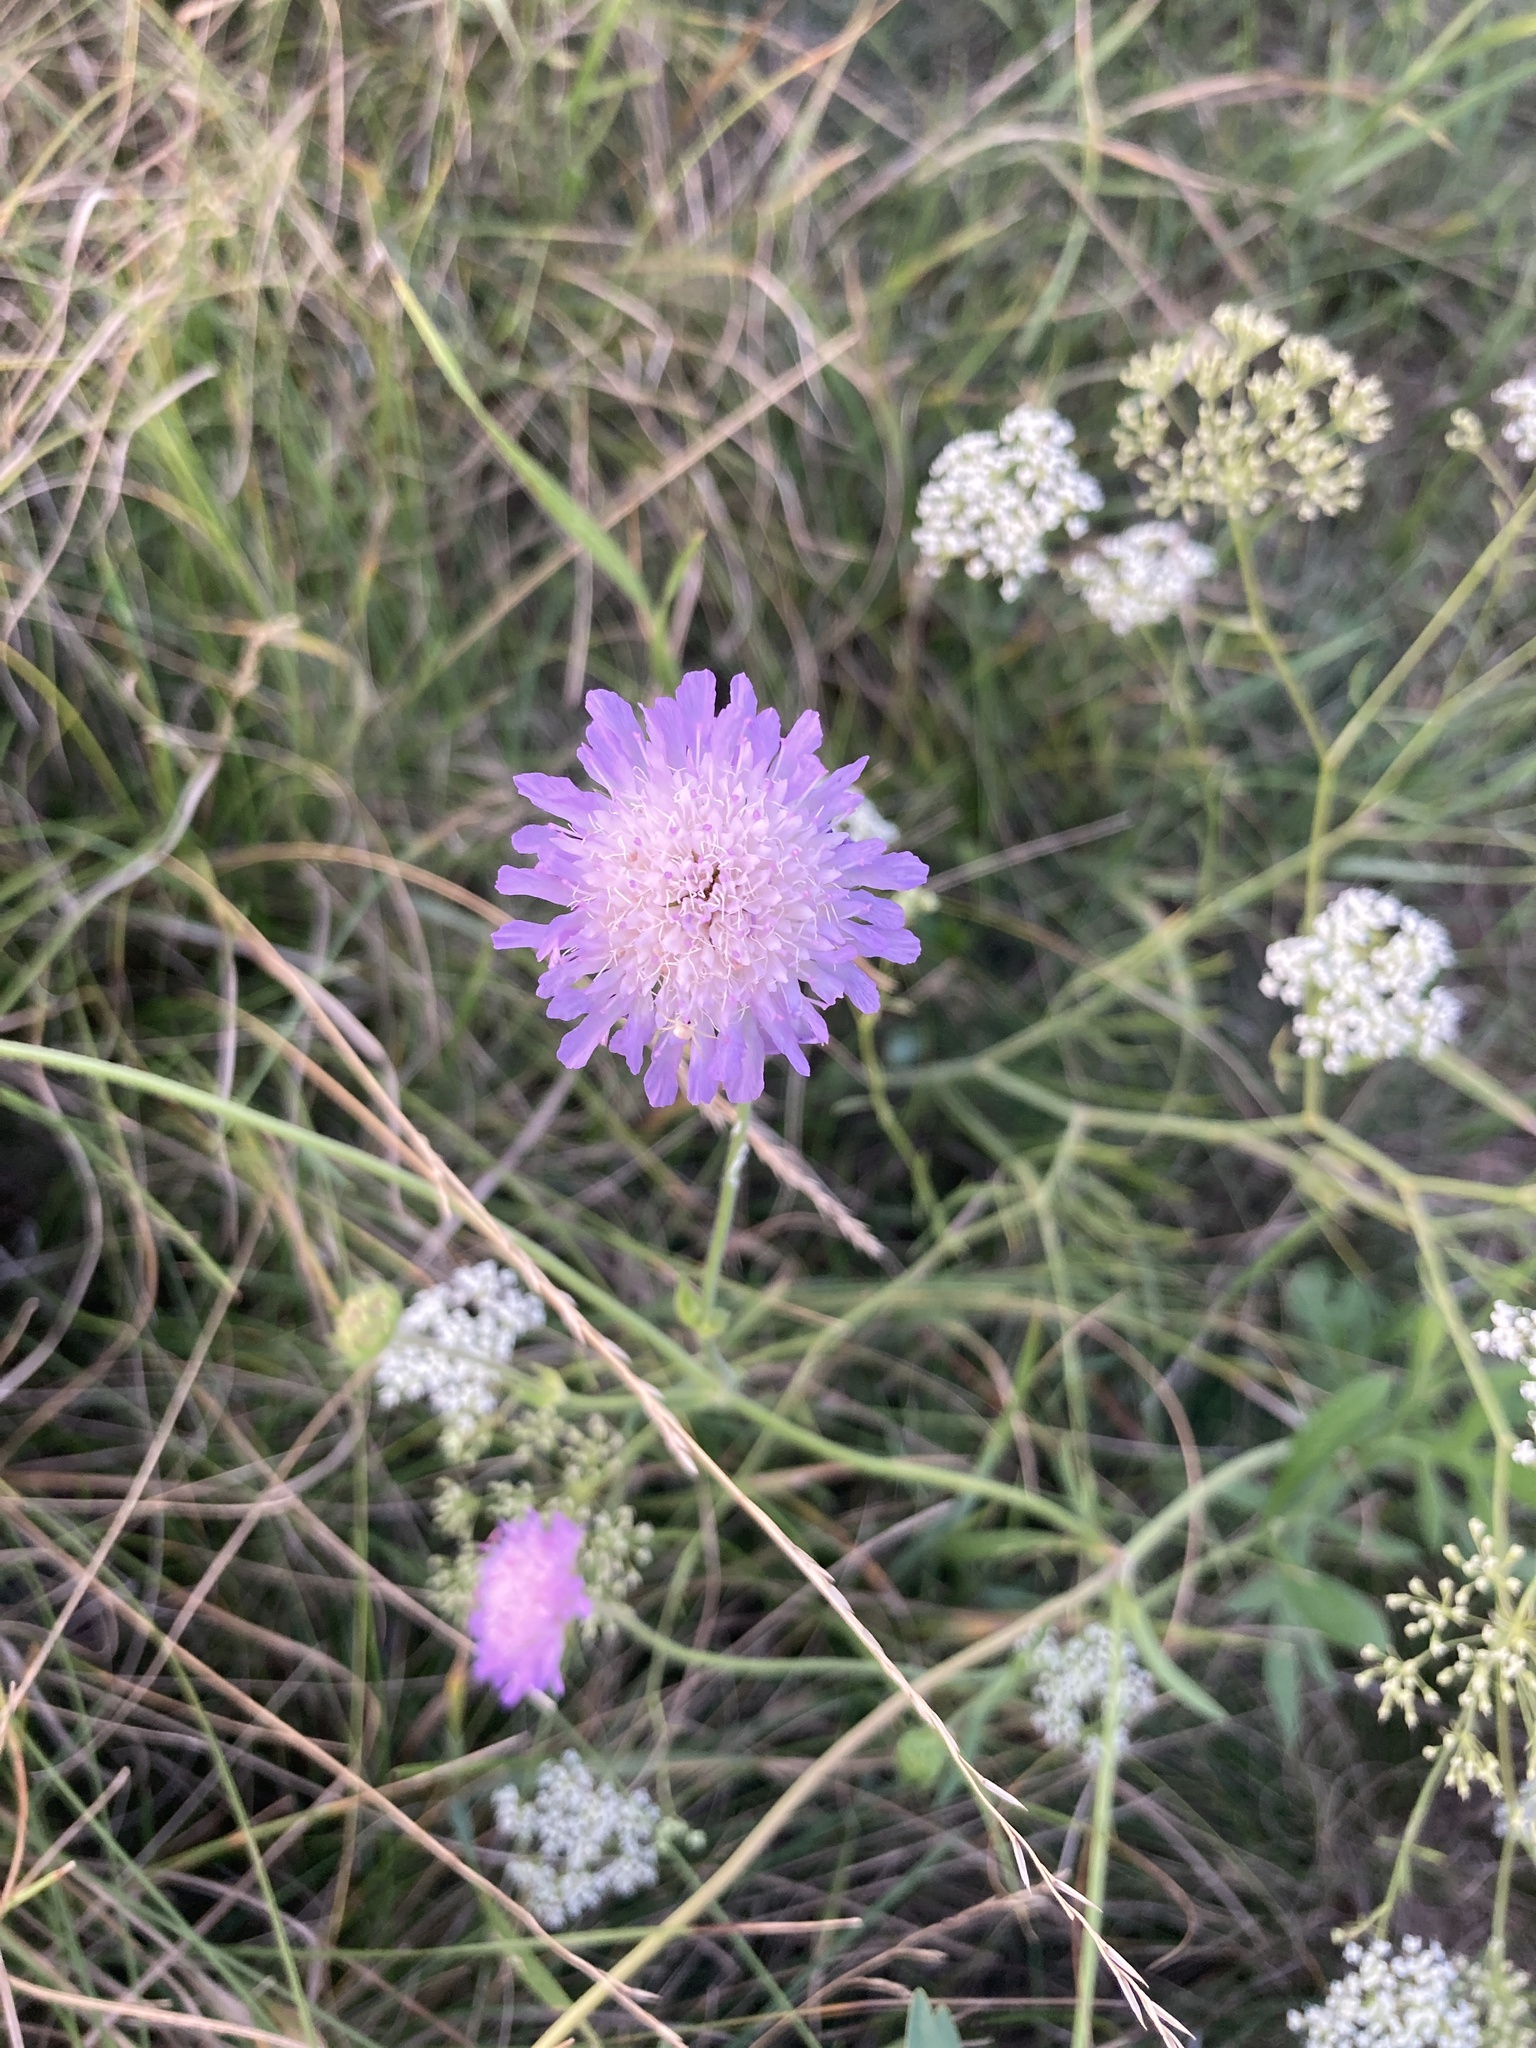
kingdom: Plantae
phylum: Tracheophyta
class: Magnoliopsida
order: Dipsacales
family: Caprifoliaceae
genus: Knautia
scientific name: Knautia arvensis
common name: Field scabiosa
